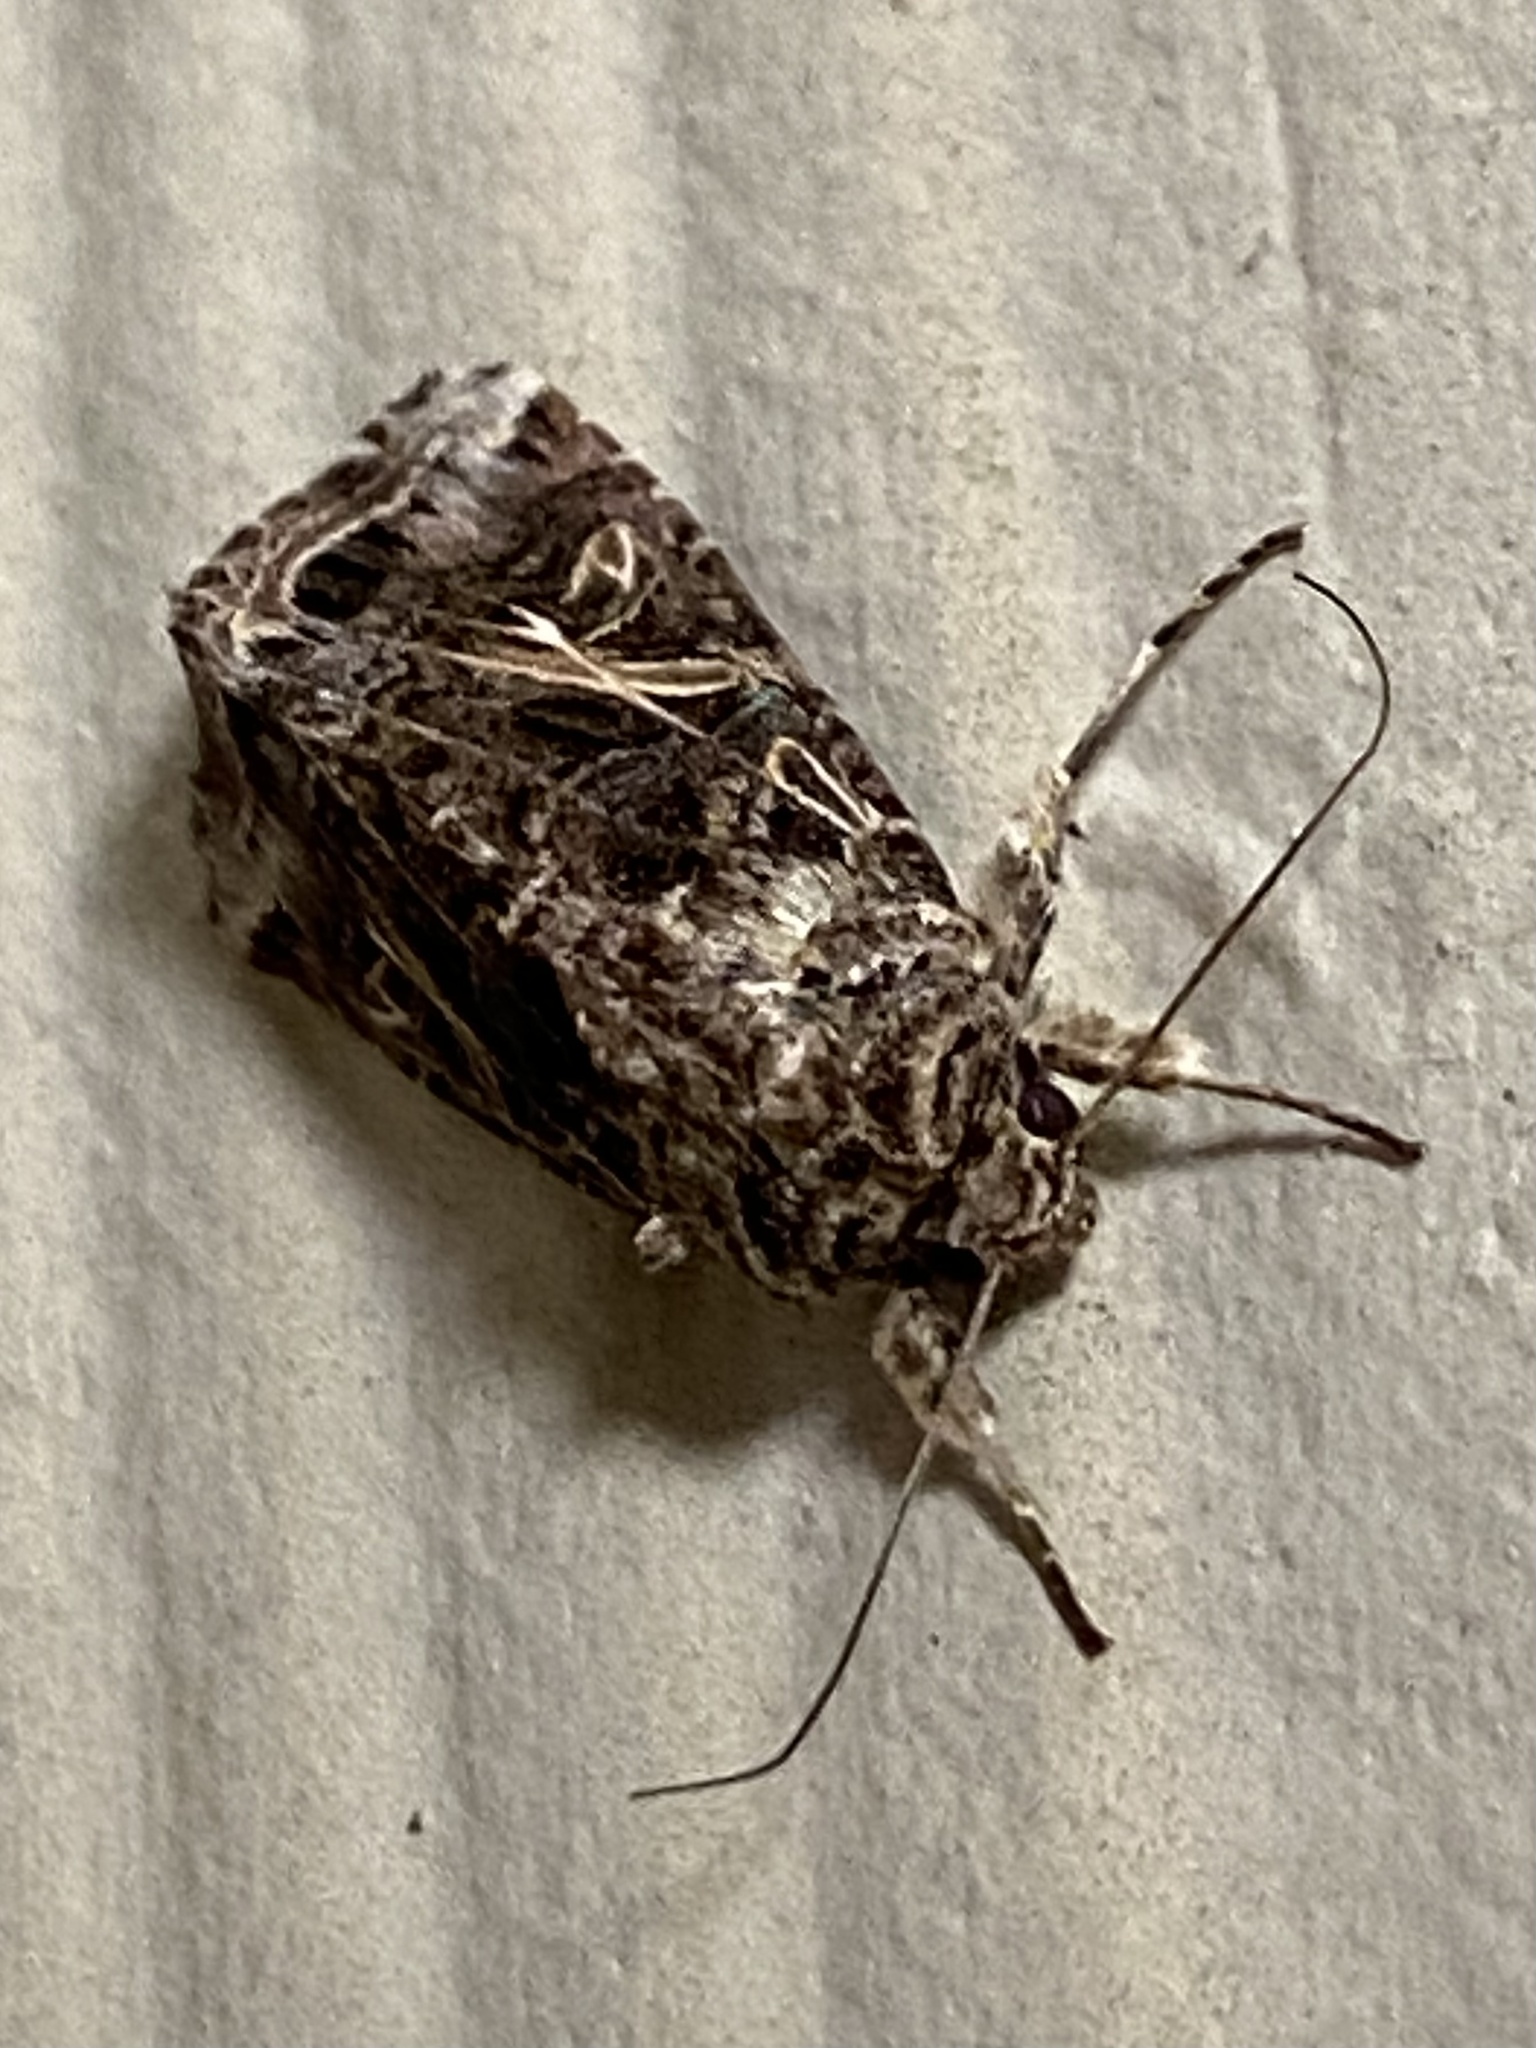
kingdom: Animalia
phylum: Arthropoda
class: Insecta
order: Lepidoptera
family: Noctuidae
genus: Spodoptera
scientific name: Spodoptera ornithogalli
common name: Yellow-striped armyworm
